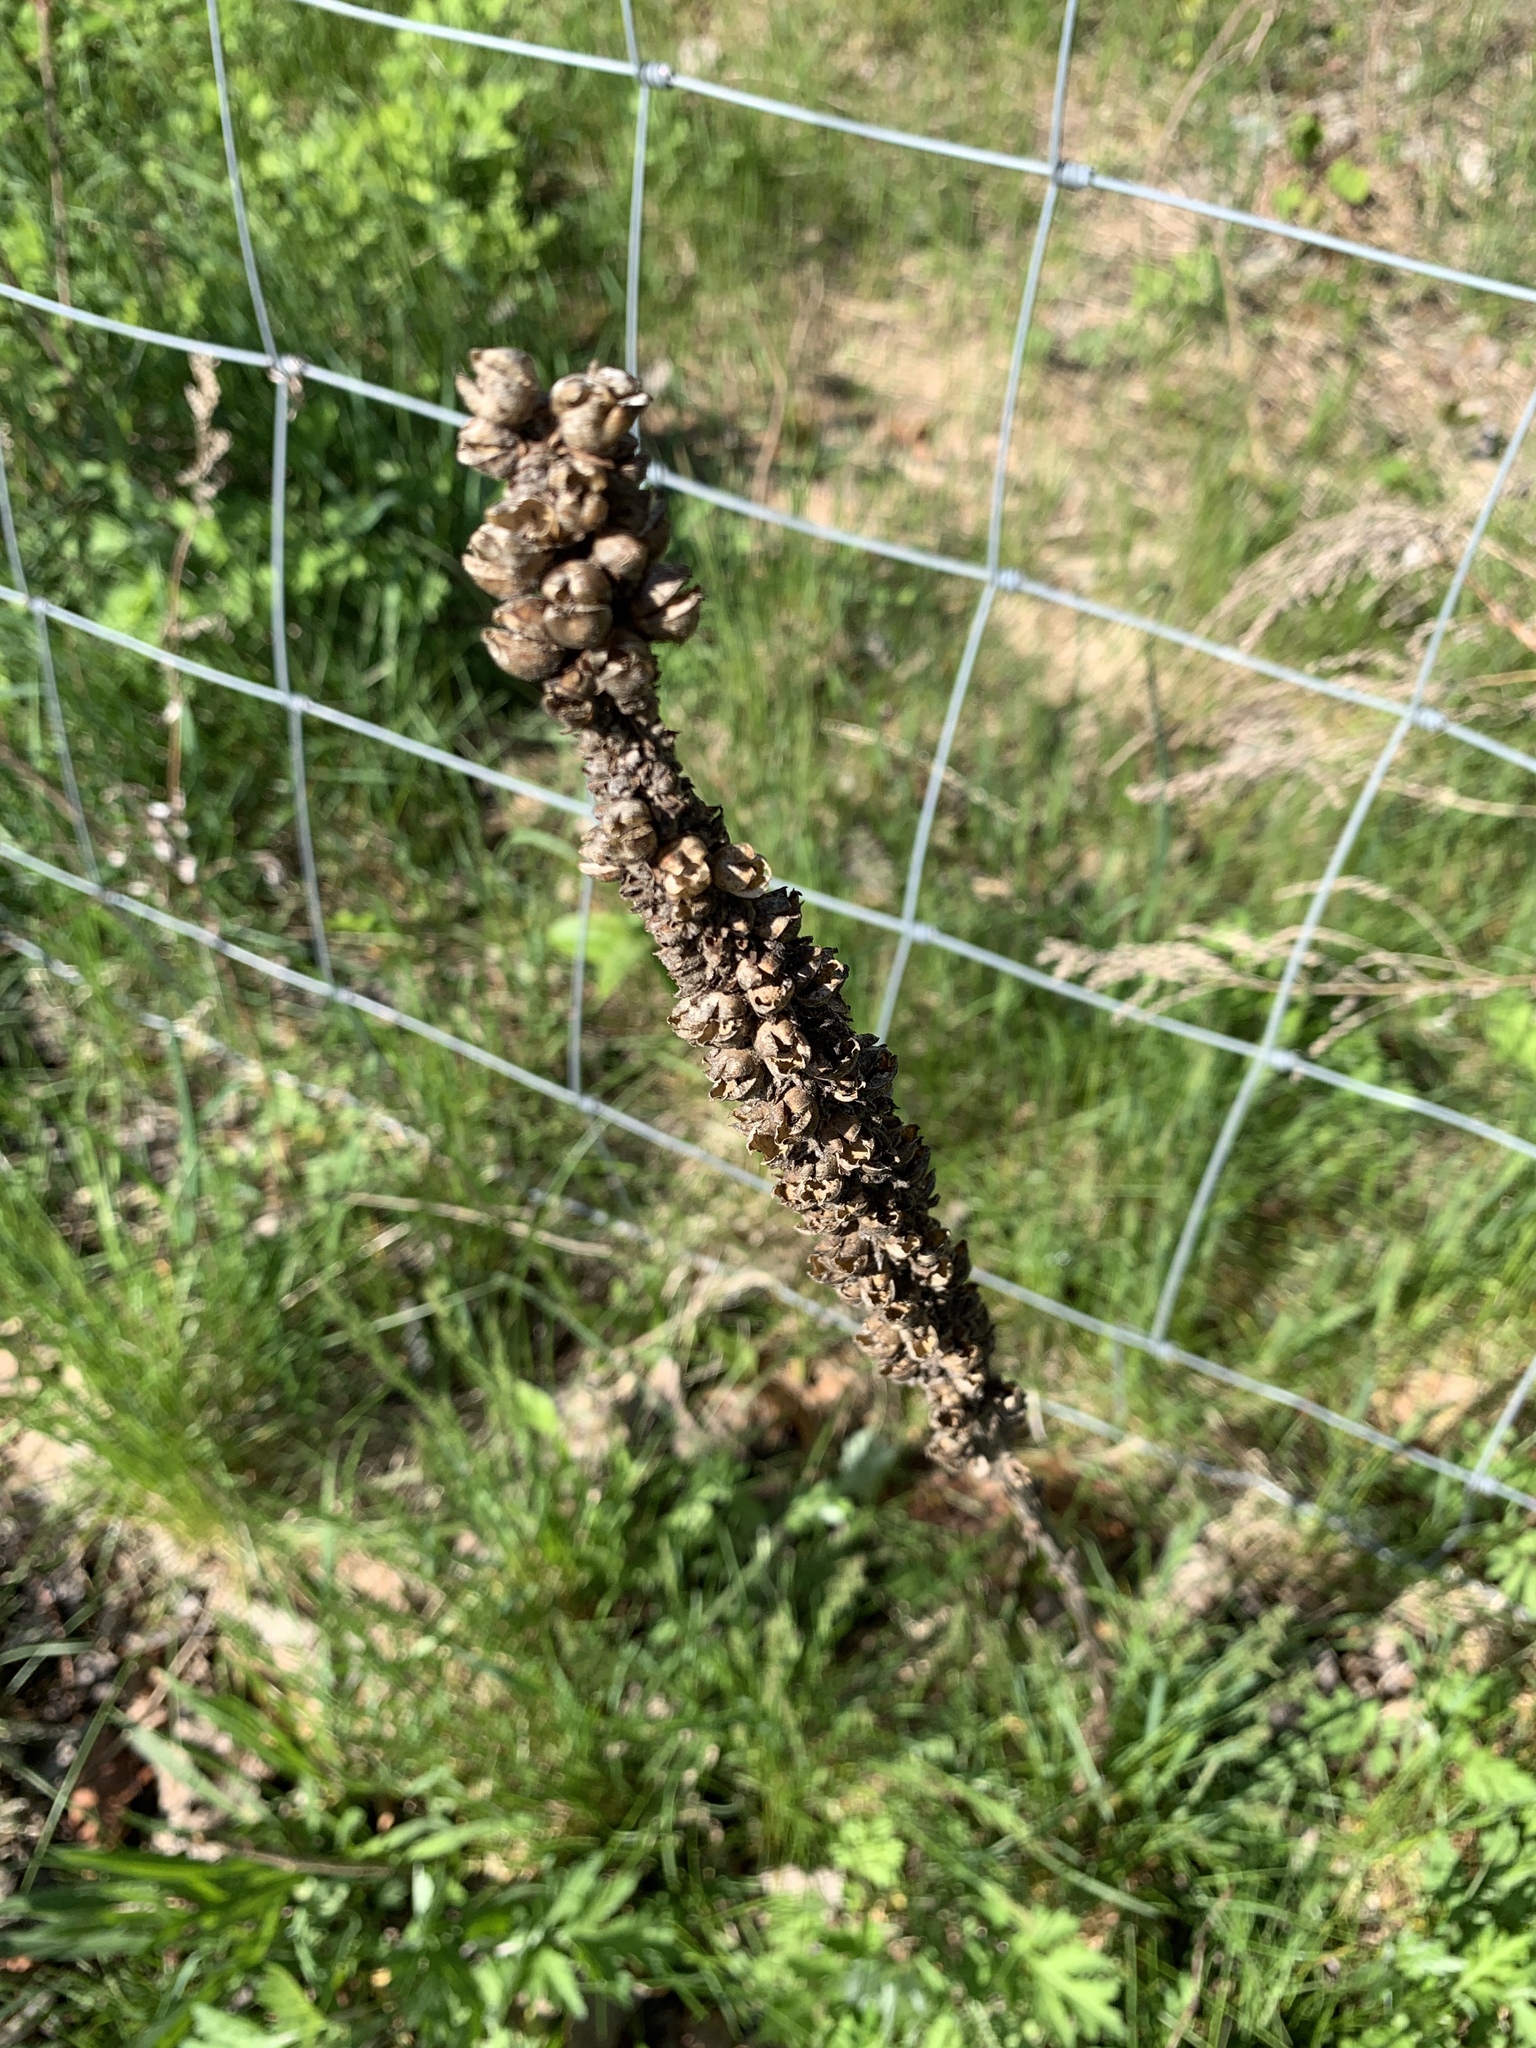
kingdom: Plantae
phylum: Tracheophyta
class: Magnoliopsida
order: Lamiales
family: Scrophulariaceae
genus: Verbascum
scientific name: Verbascum thapsus
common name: Common mullein
